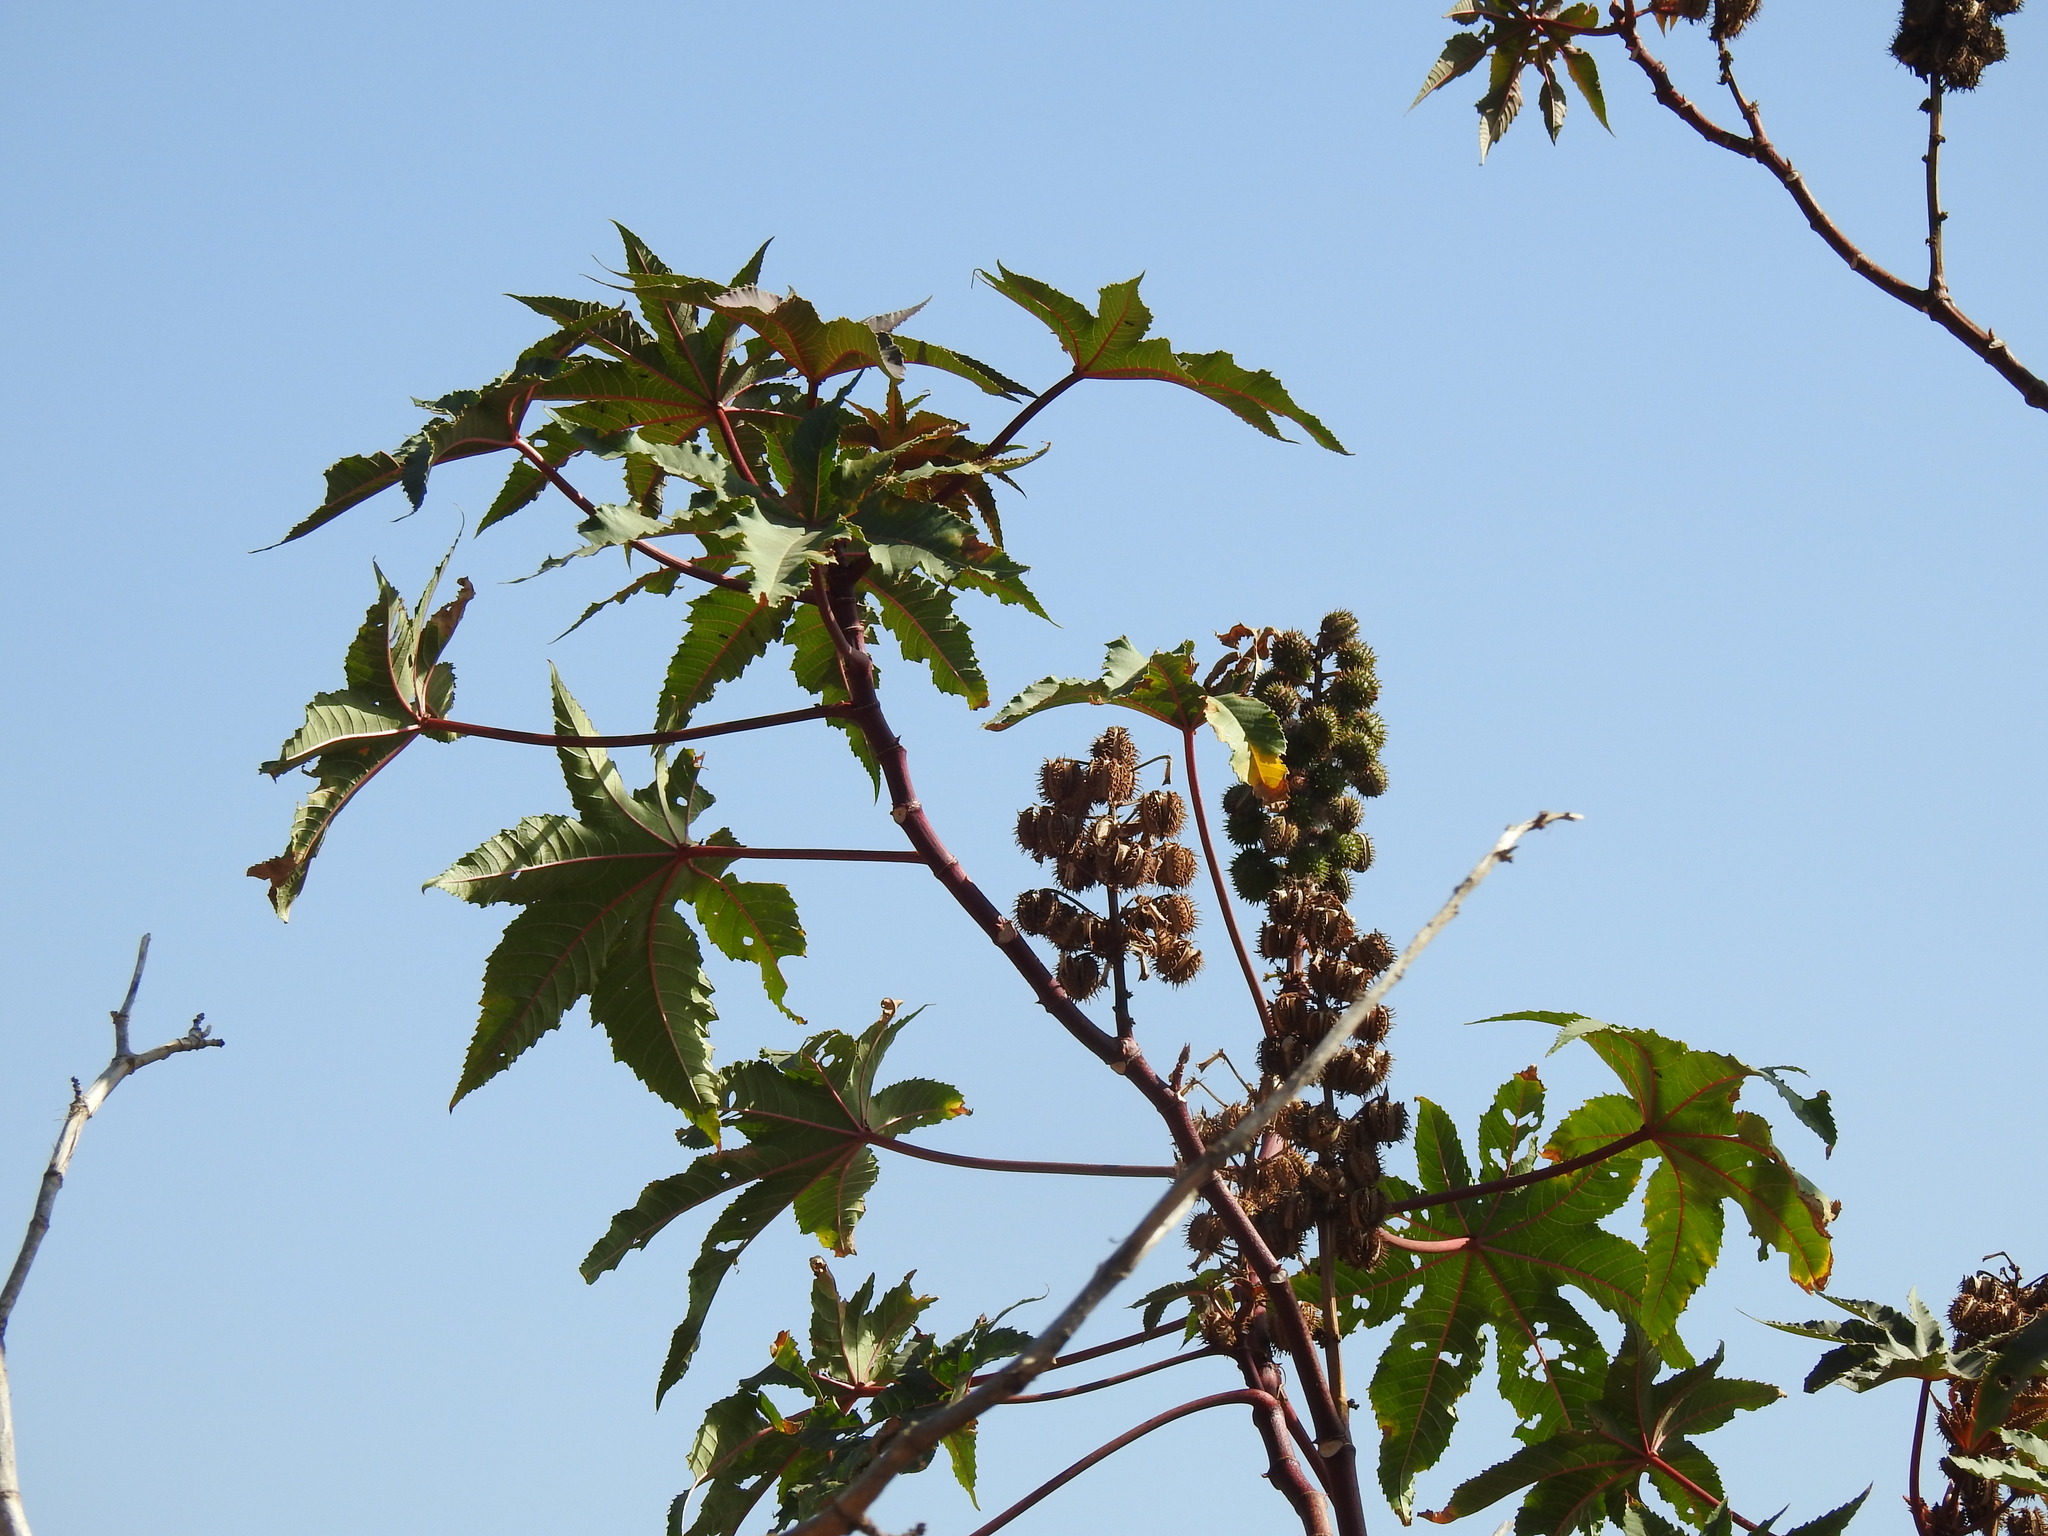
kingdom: Plantae
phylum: Tracheophyta
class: Magnoliopsida
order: Malpighiales
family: Euphorbiaceae
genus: Ricinus
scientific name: Ricinus communis
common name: Castor-oil-plant
